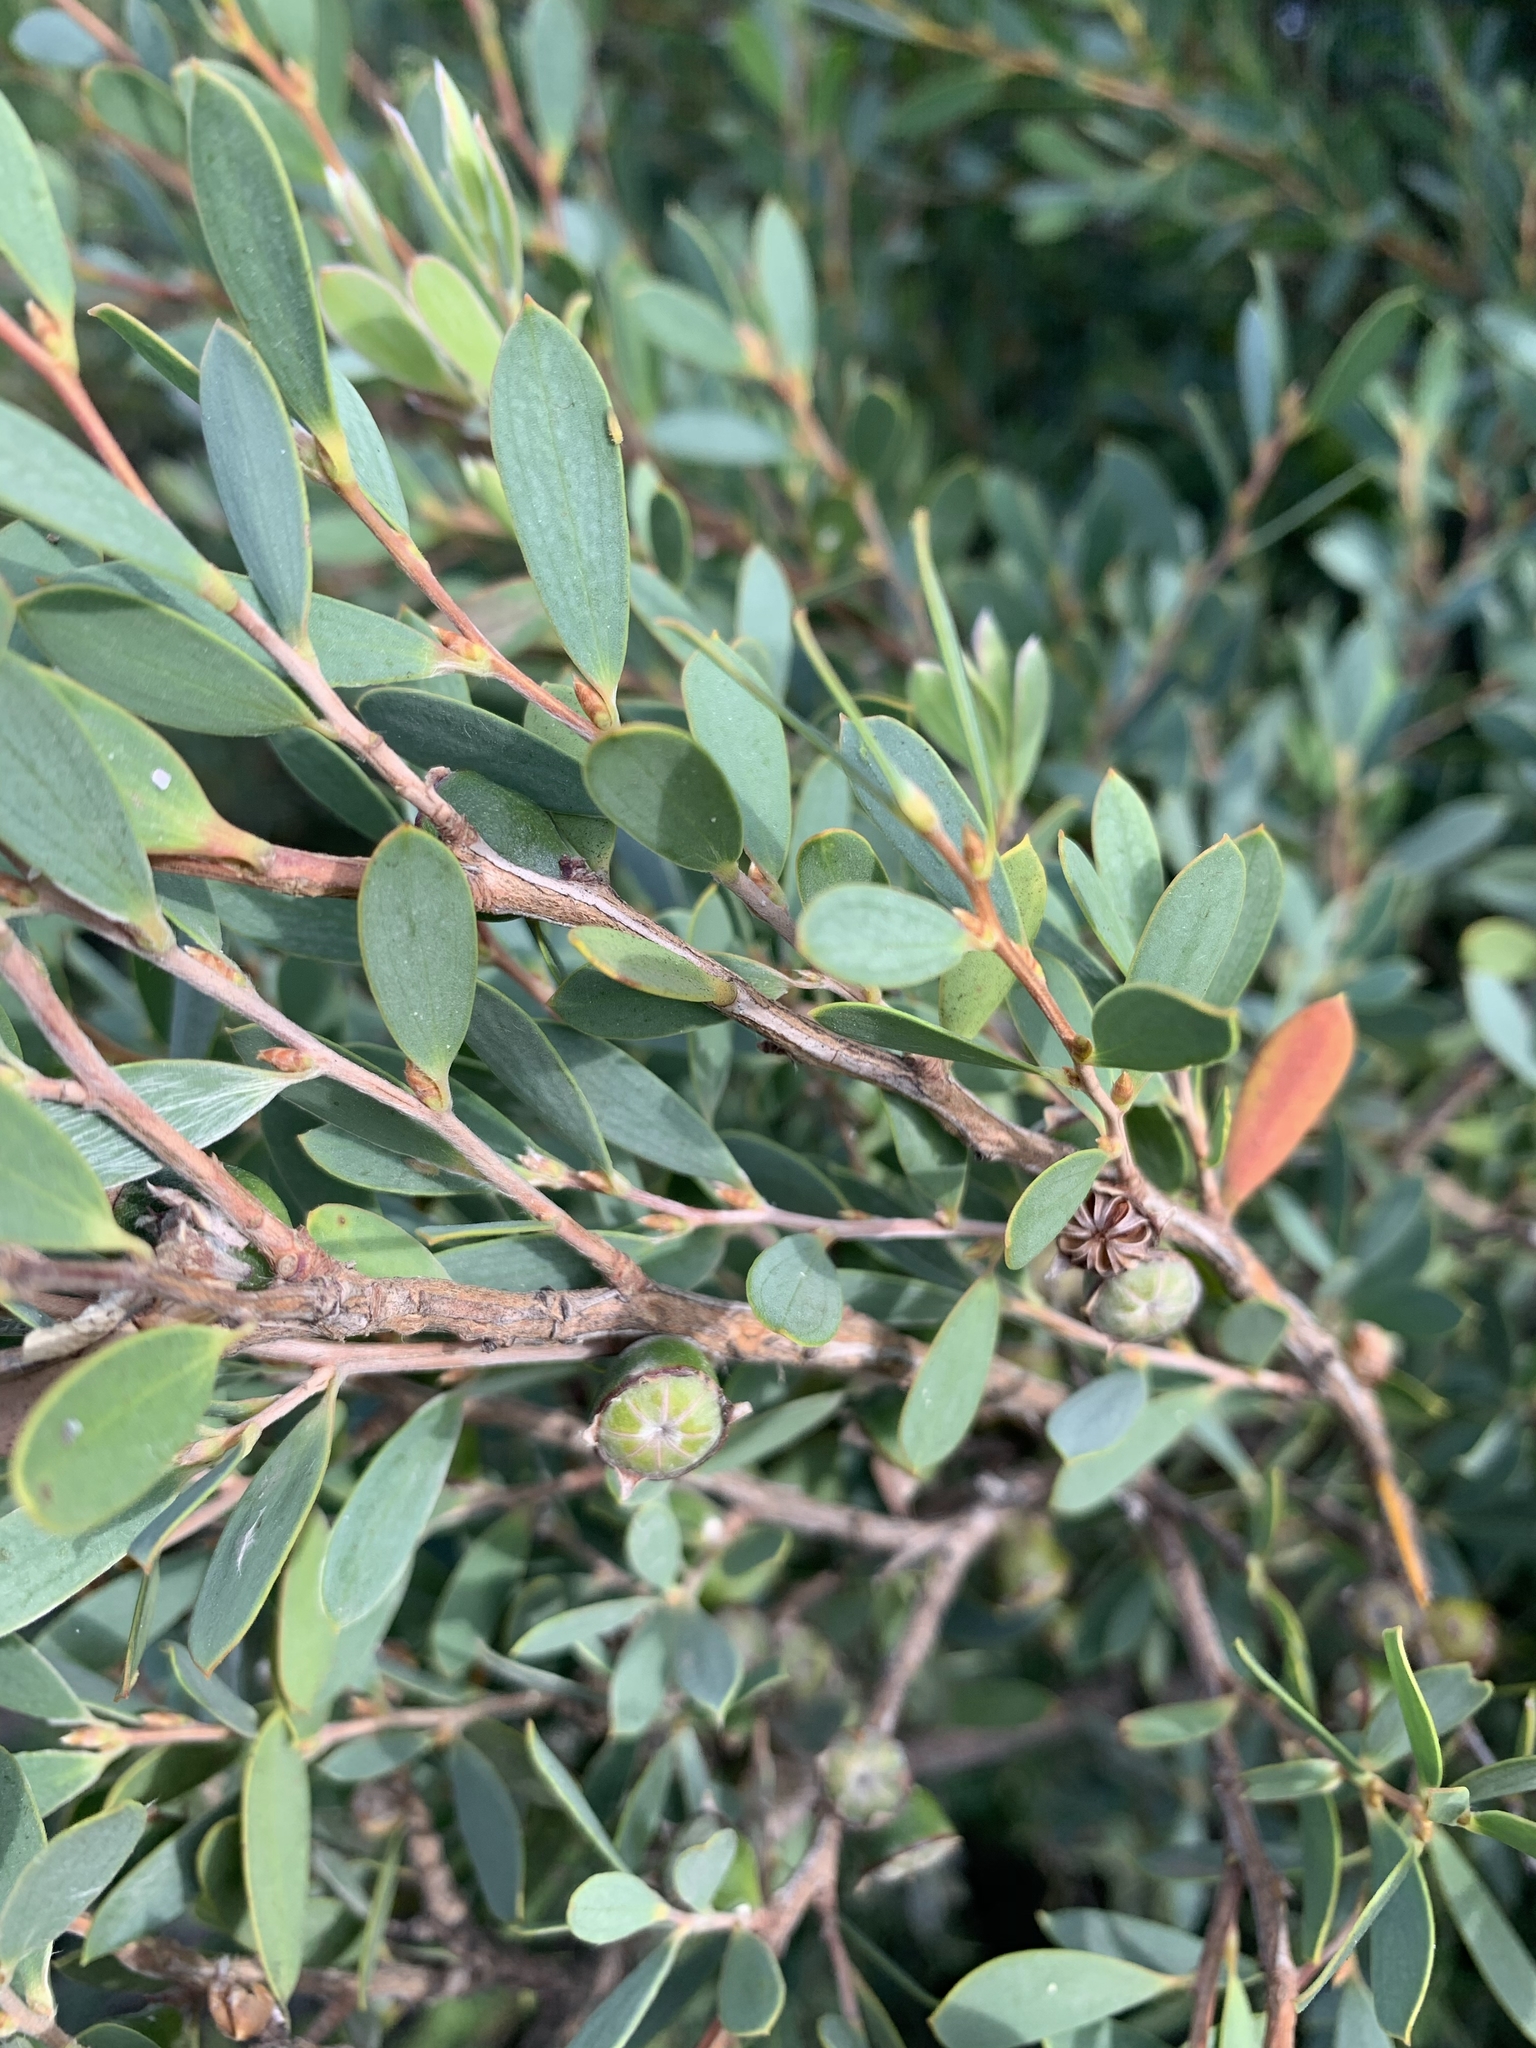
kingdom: Plantae
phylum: Tracheophyta
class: Magnoliopsida
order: Myrtales
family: Myrtaceae
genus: Leptospermum
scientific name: Leptospermum laevigatum
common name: Australian teatree
